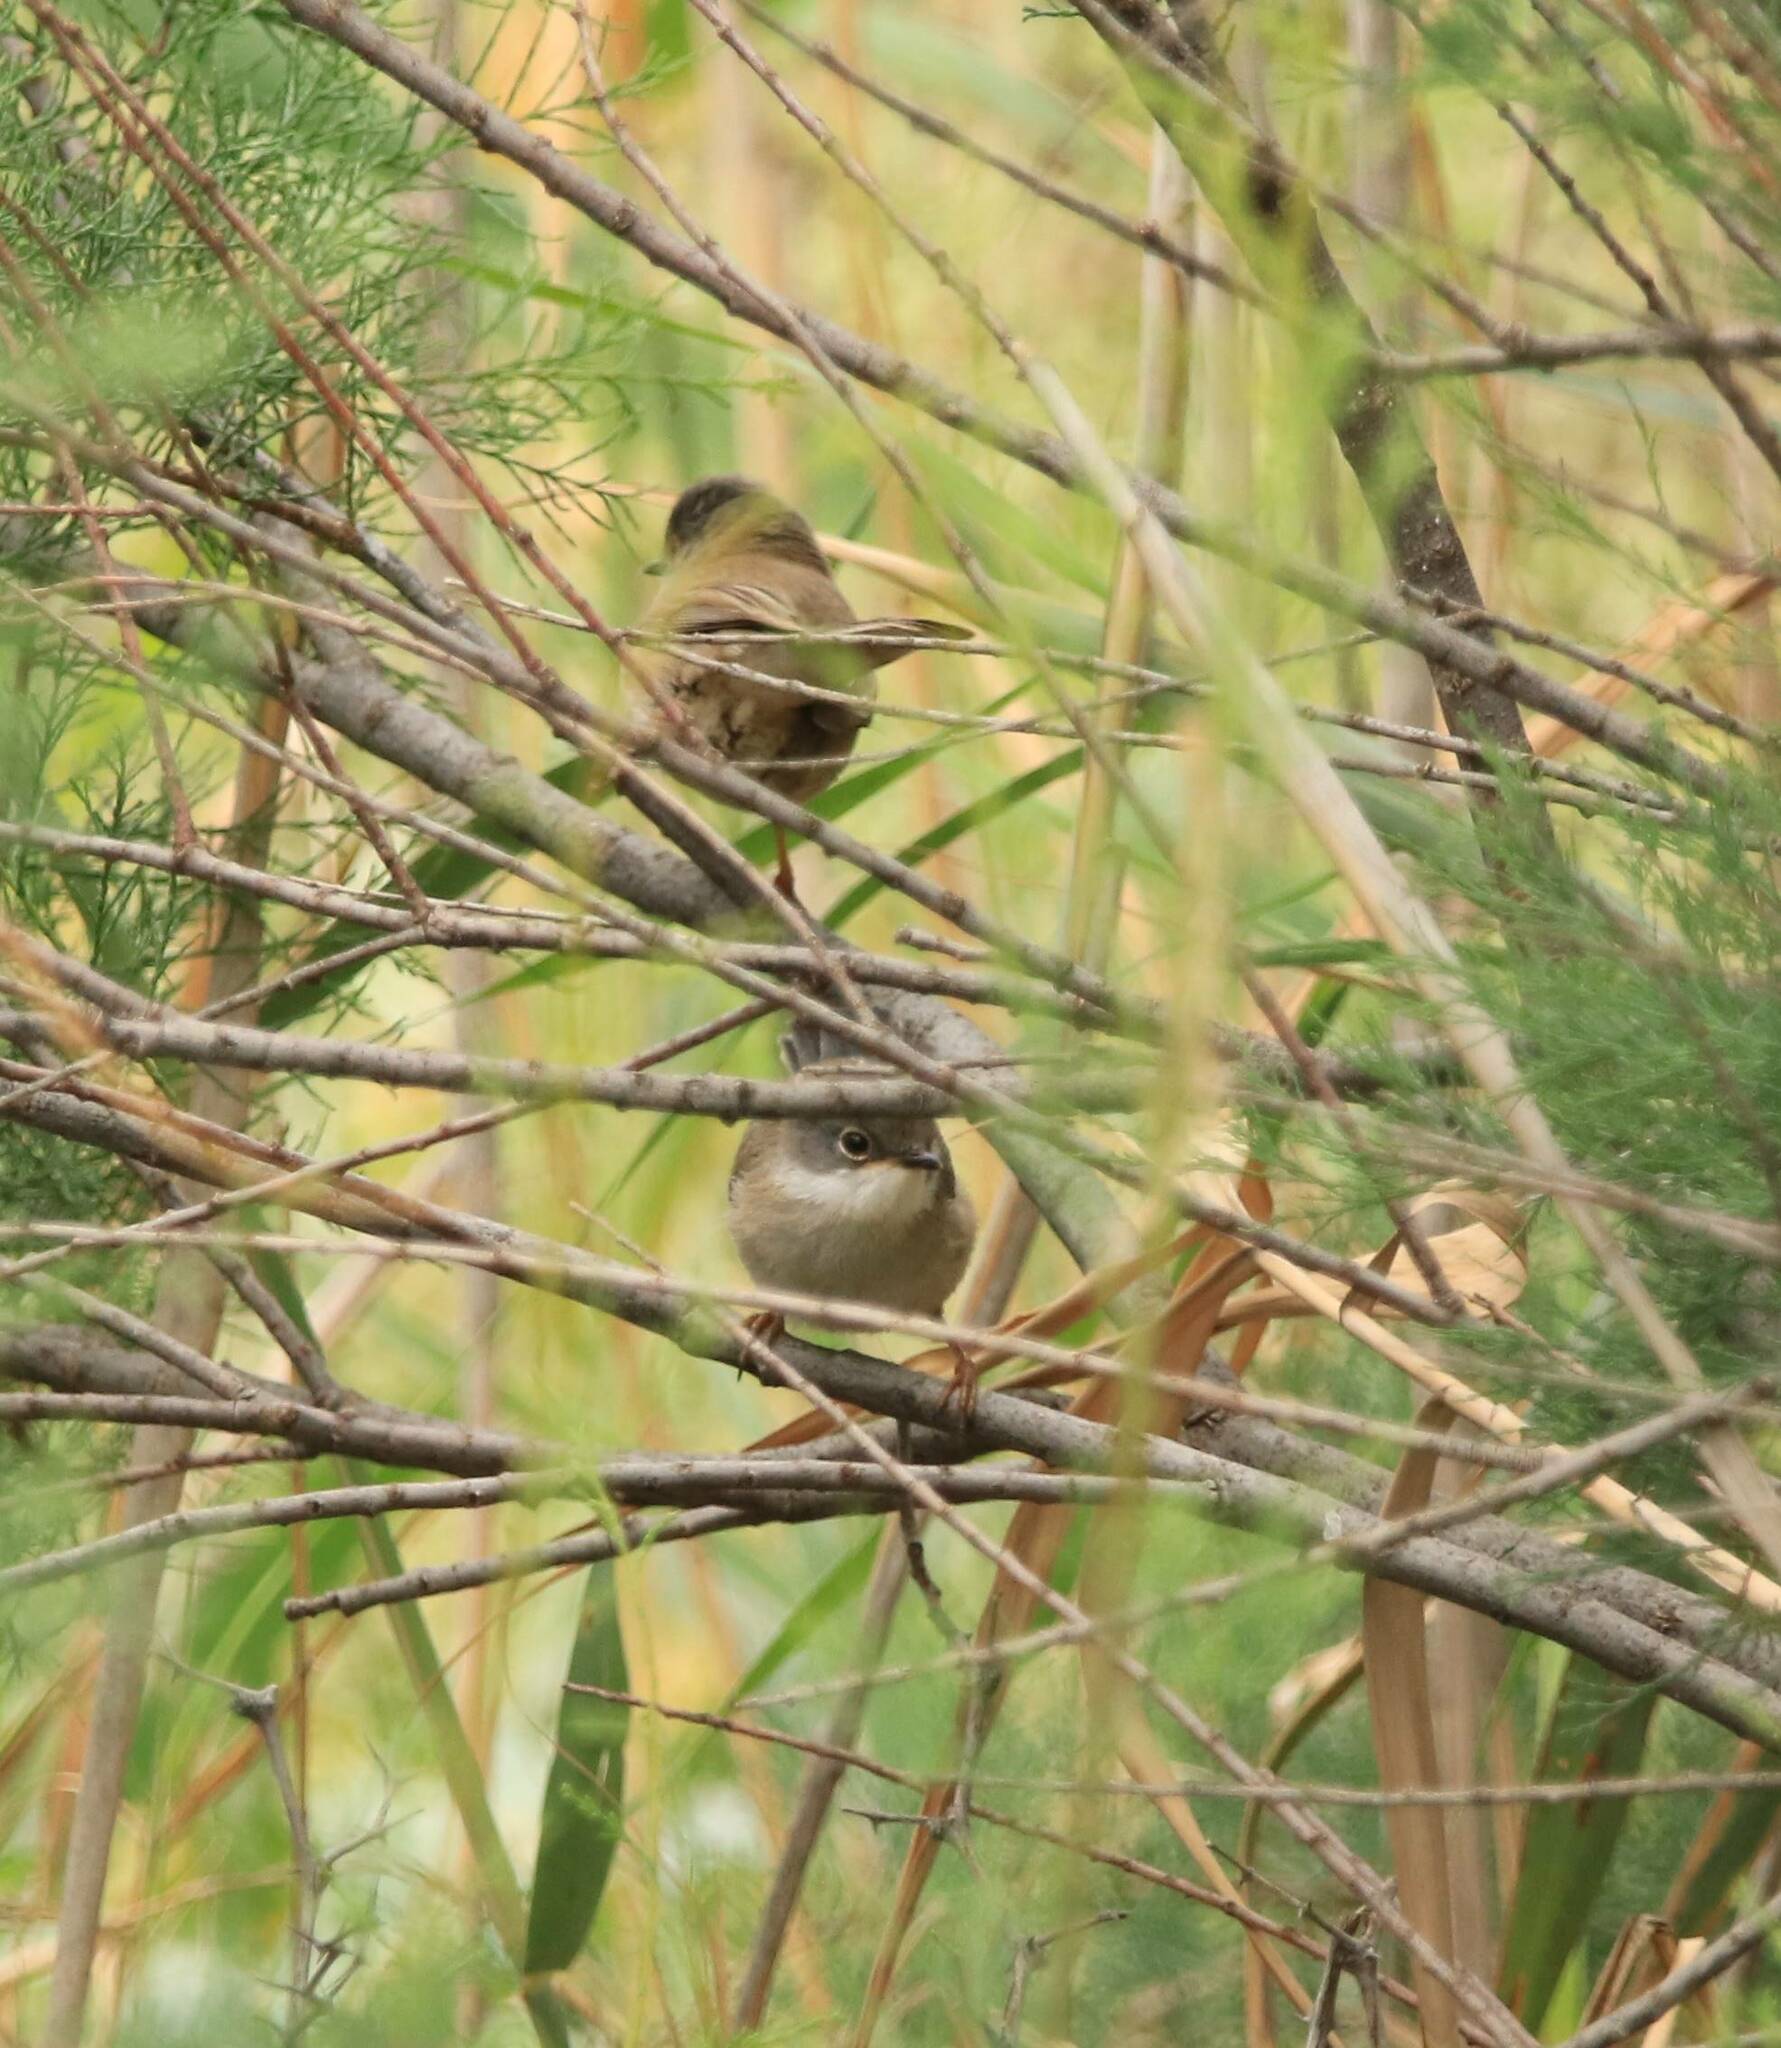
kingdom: Animalia
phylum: Chordata
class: Aves
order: Passeriformes
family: Sylviidae
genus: Curruca
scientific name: Curruca melanocephala
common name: Sardinian warbler
